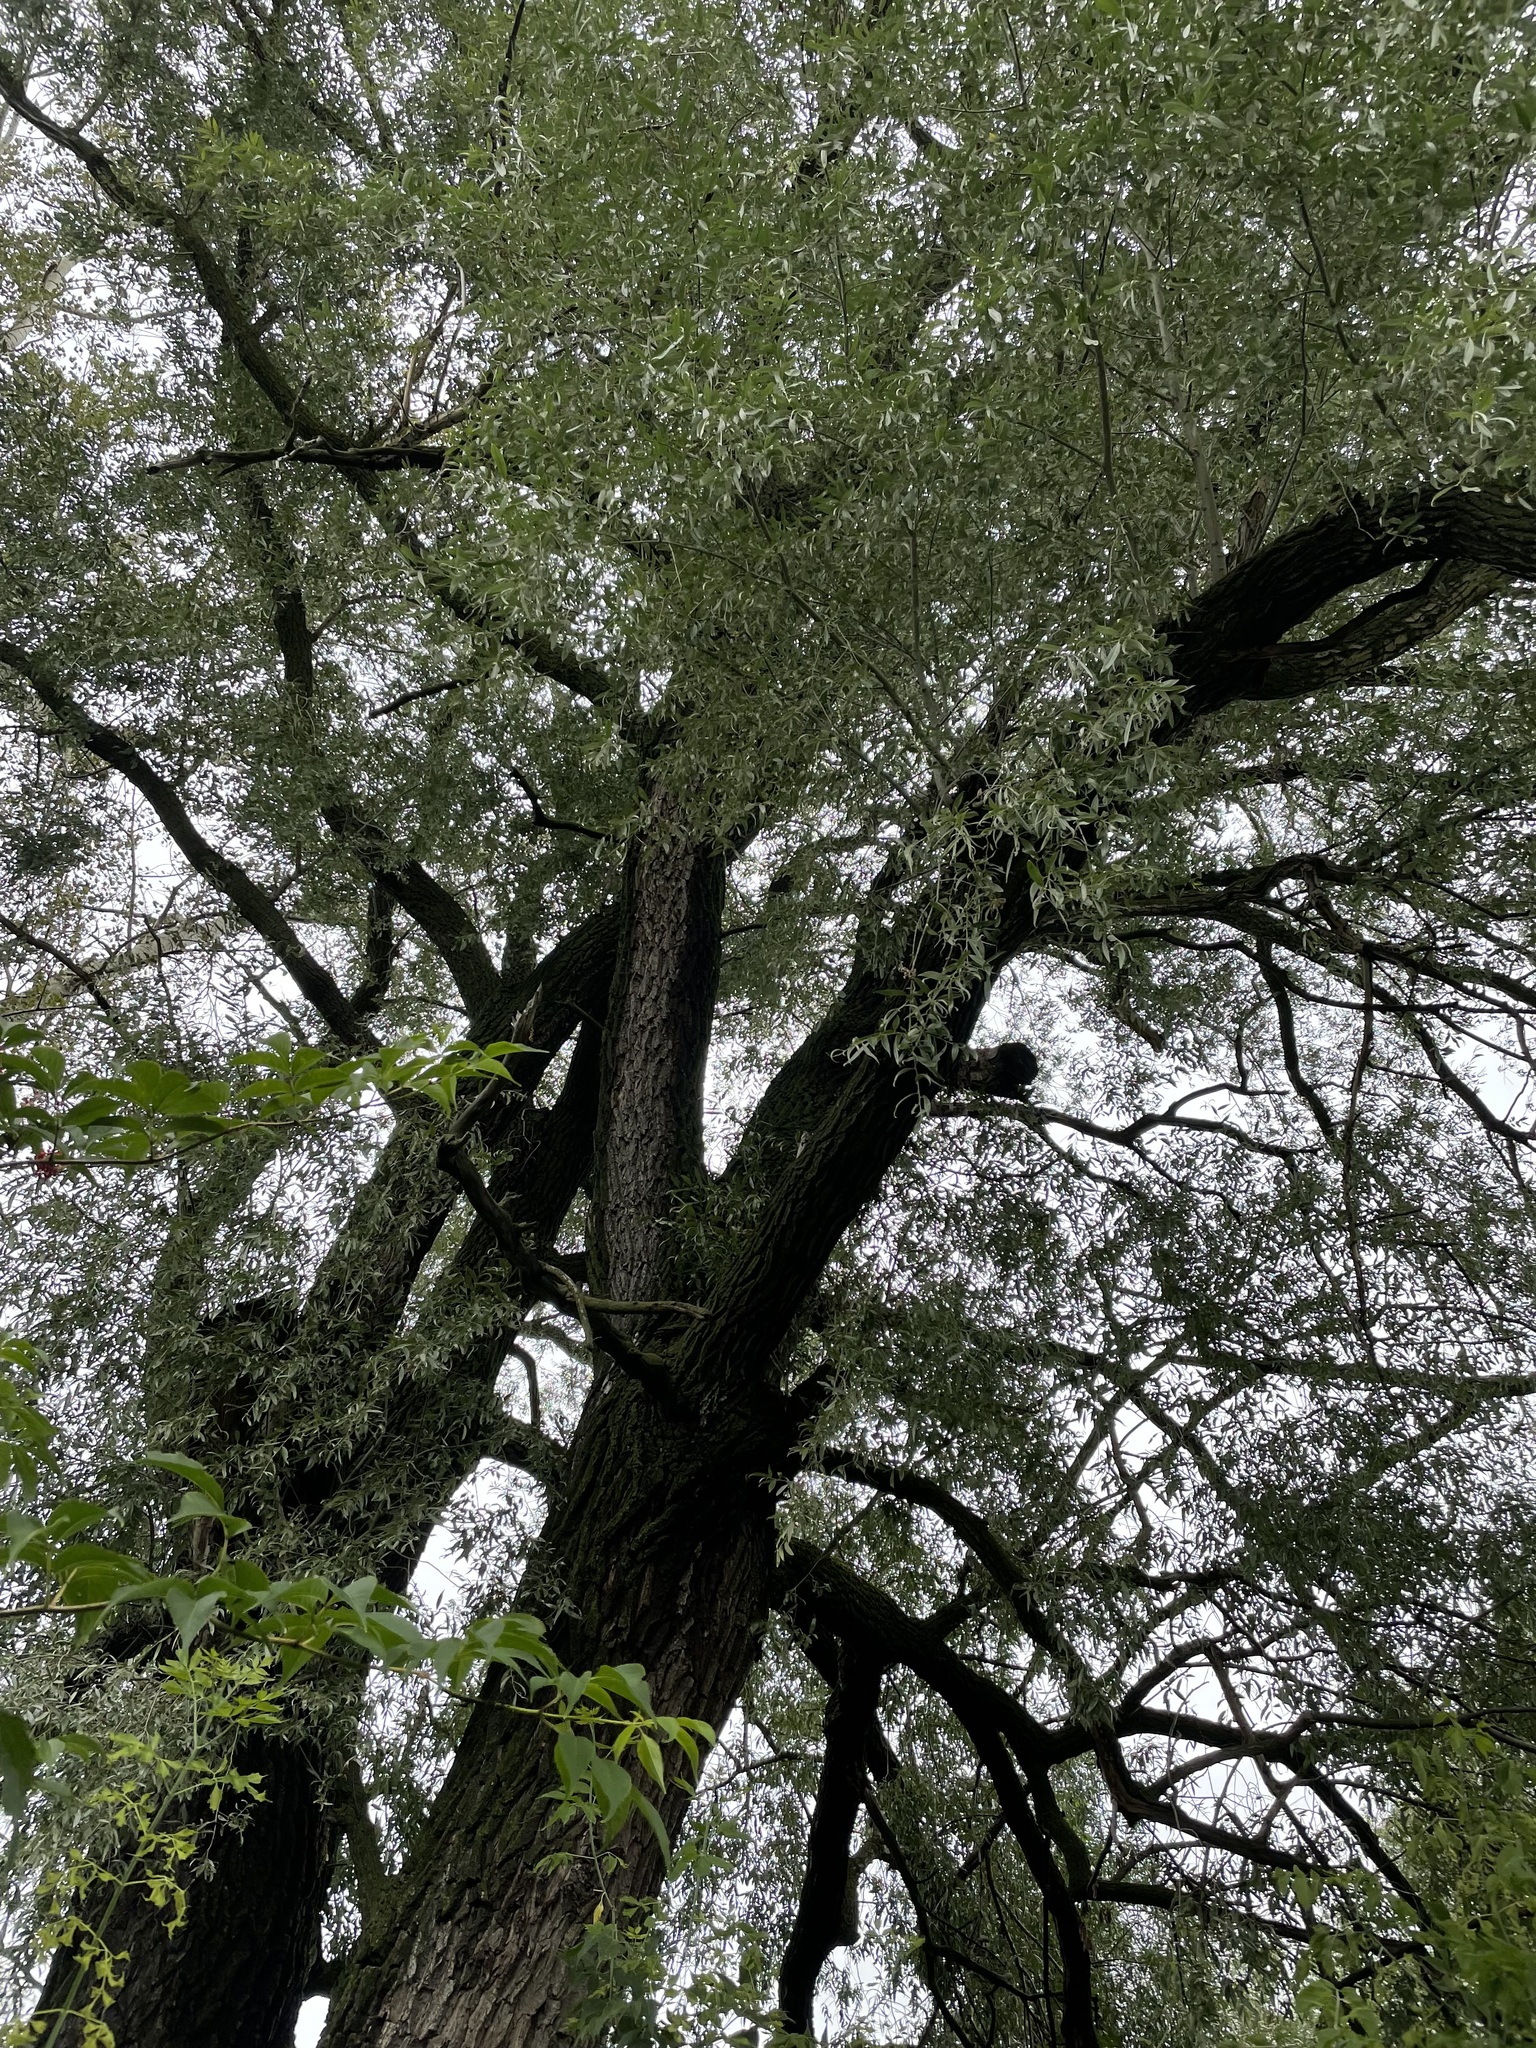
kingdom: Plantae
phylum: Tracheophyta
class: Magnoliopsida
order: Malpighiales
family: Salicaceae
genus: Salix
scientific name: Salix alba
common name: White willow
